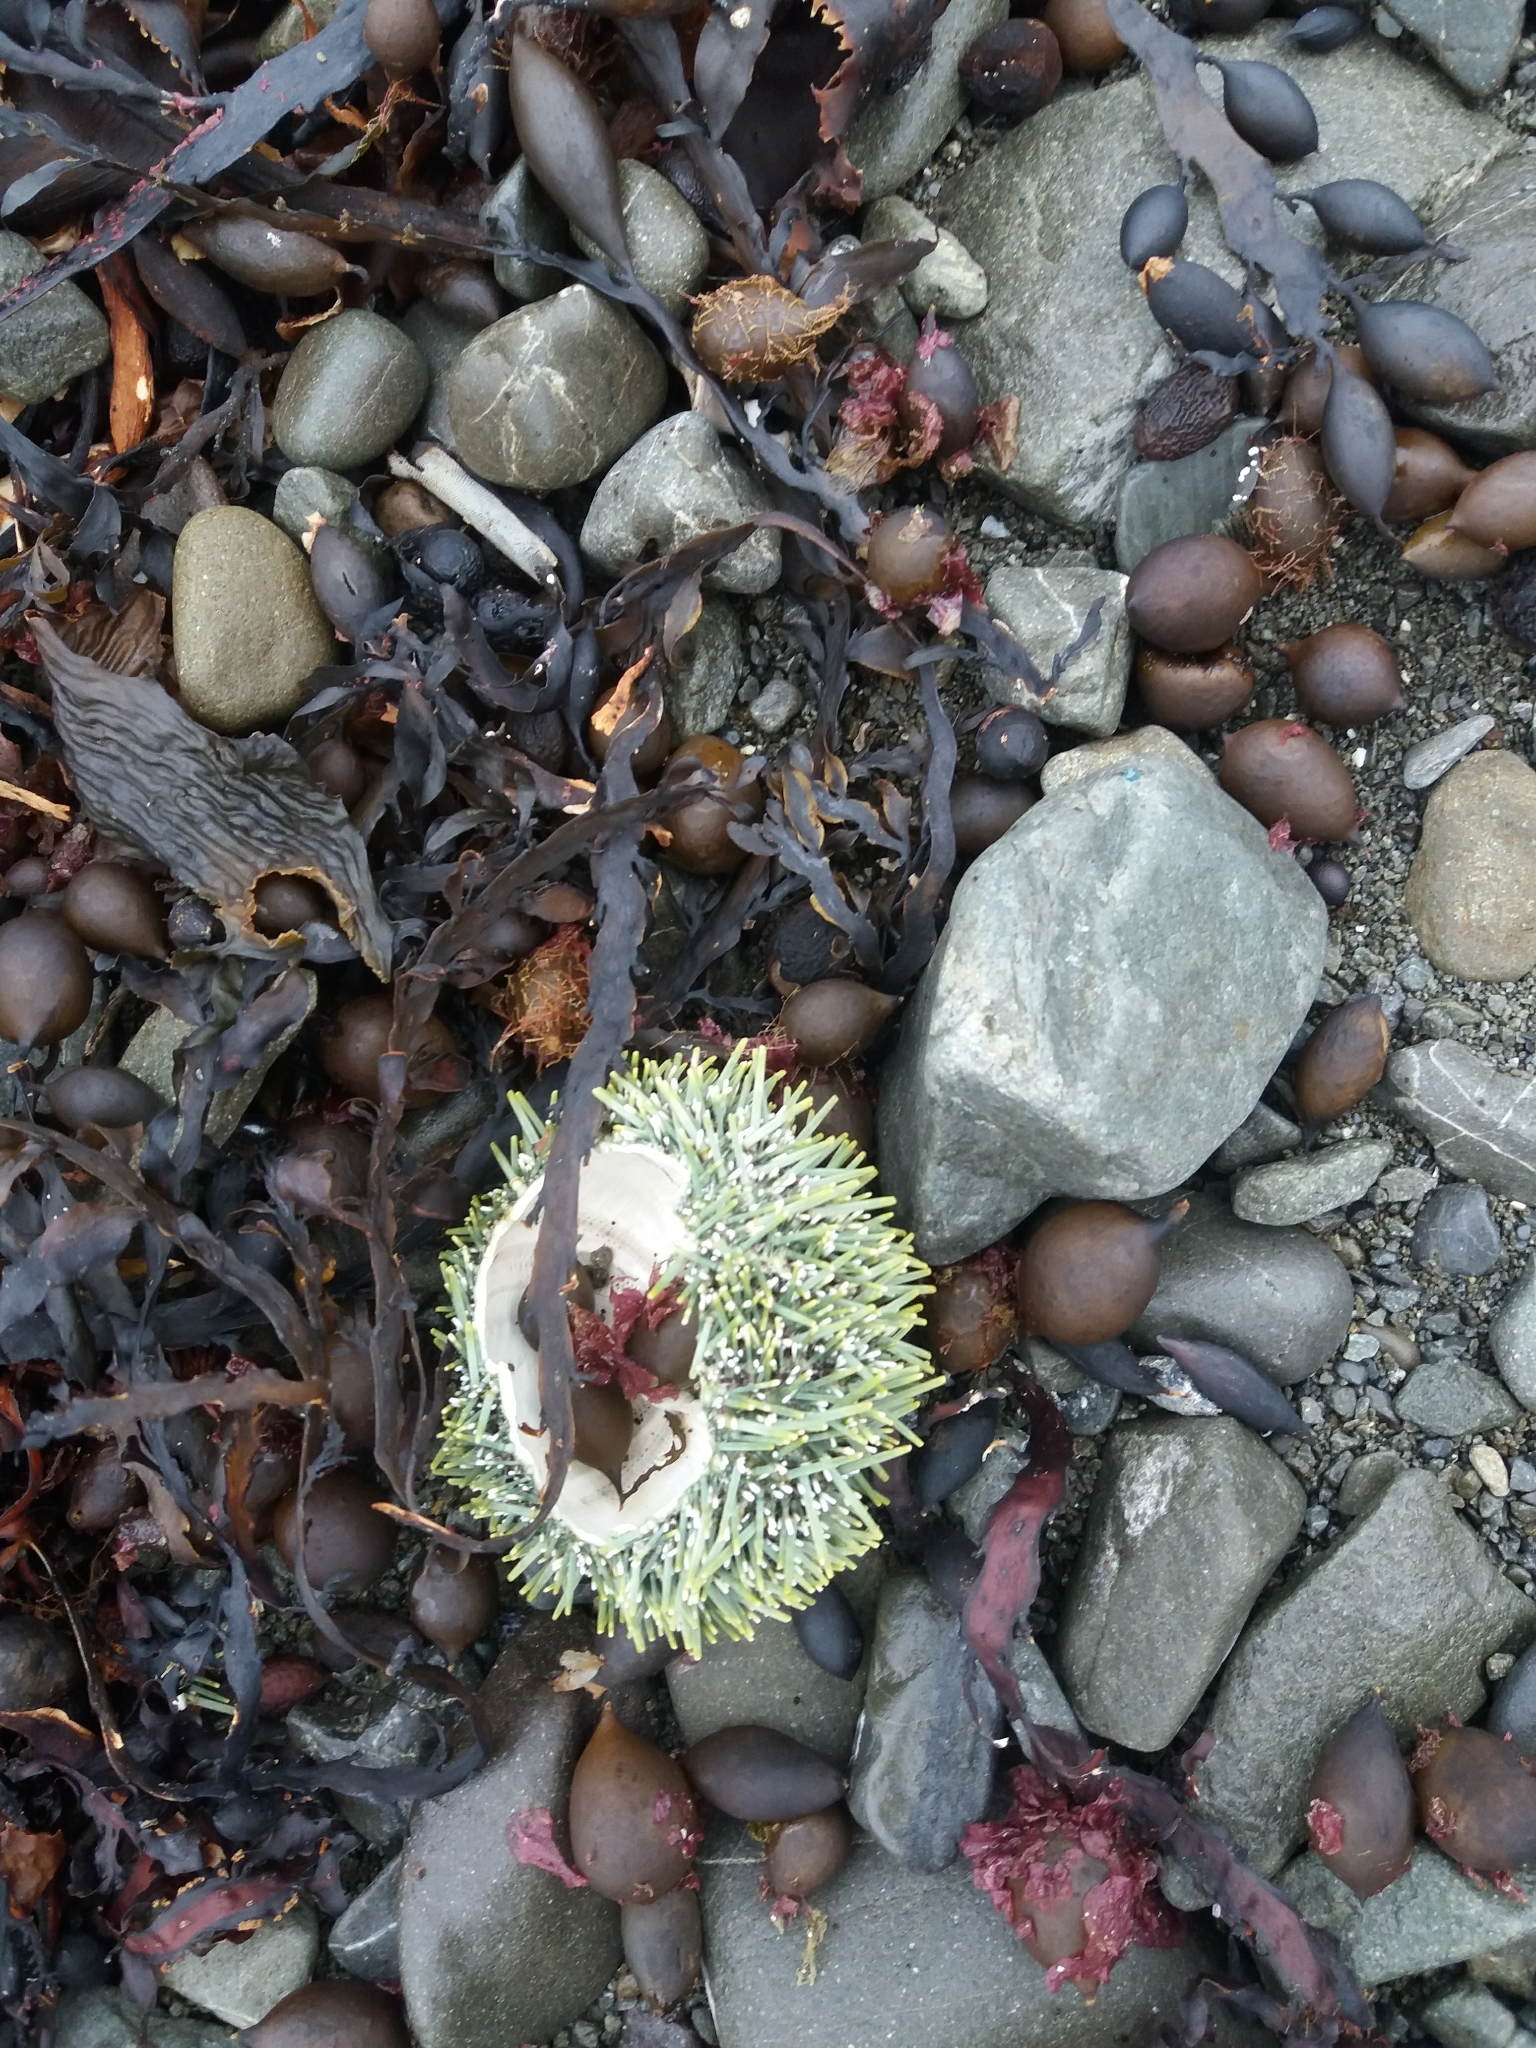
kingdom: Animalia
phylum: Echinodermata
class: Echinoidea
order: Camarodonta
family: Echinometridae
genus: Evechinus
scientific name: Evechinus chloroticus
